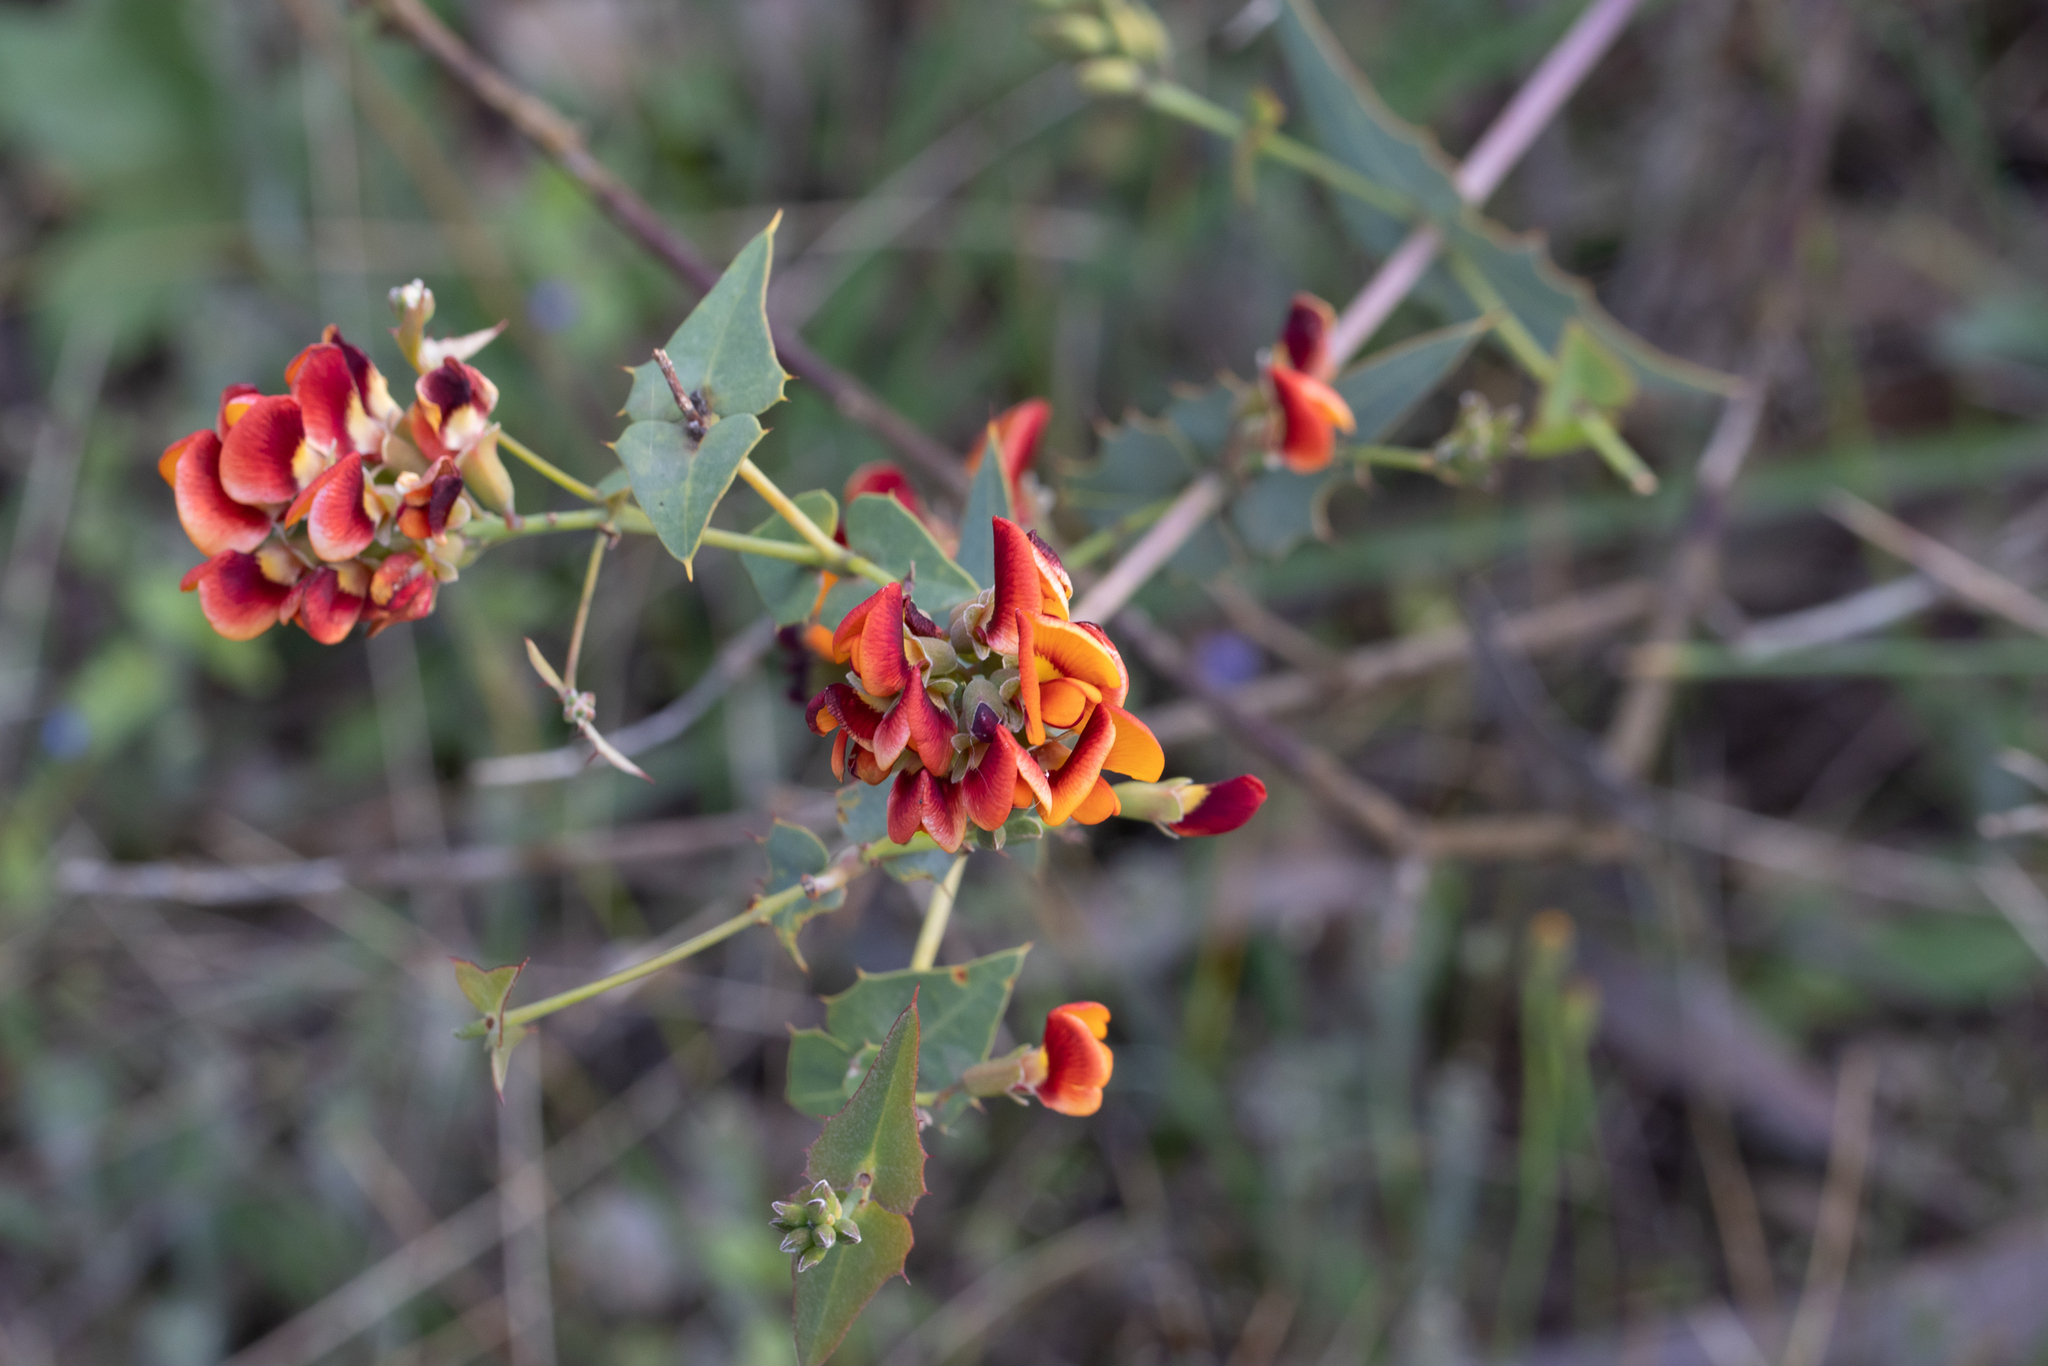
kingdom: Plantae
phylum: Tracheophyta
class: Magnoliopsida
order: Fabales
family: Fabaceae
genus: Gastrolobium
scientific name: Gastrolobium spinosum
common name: Prickly poison
